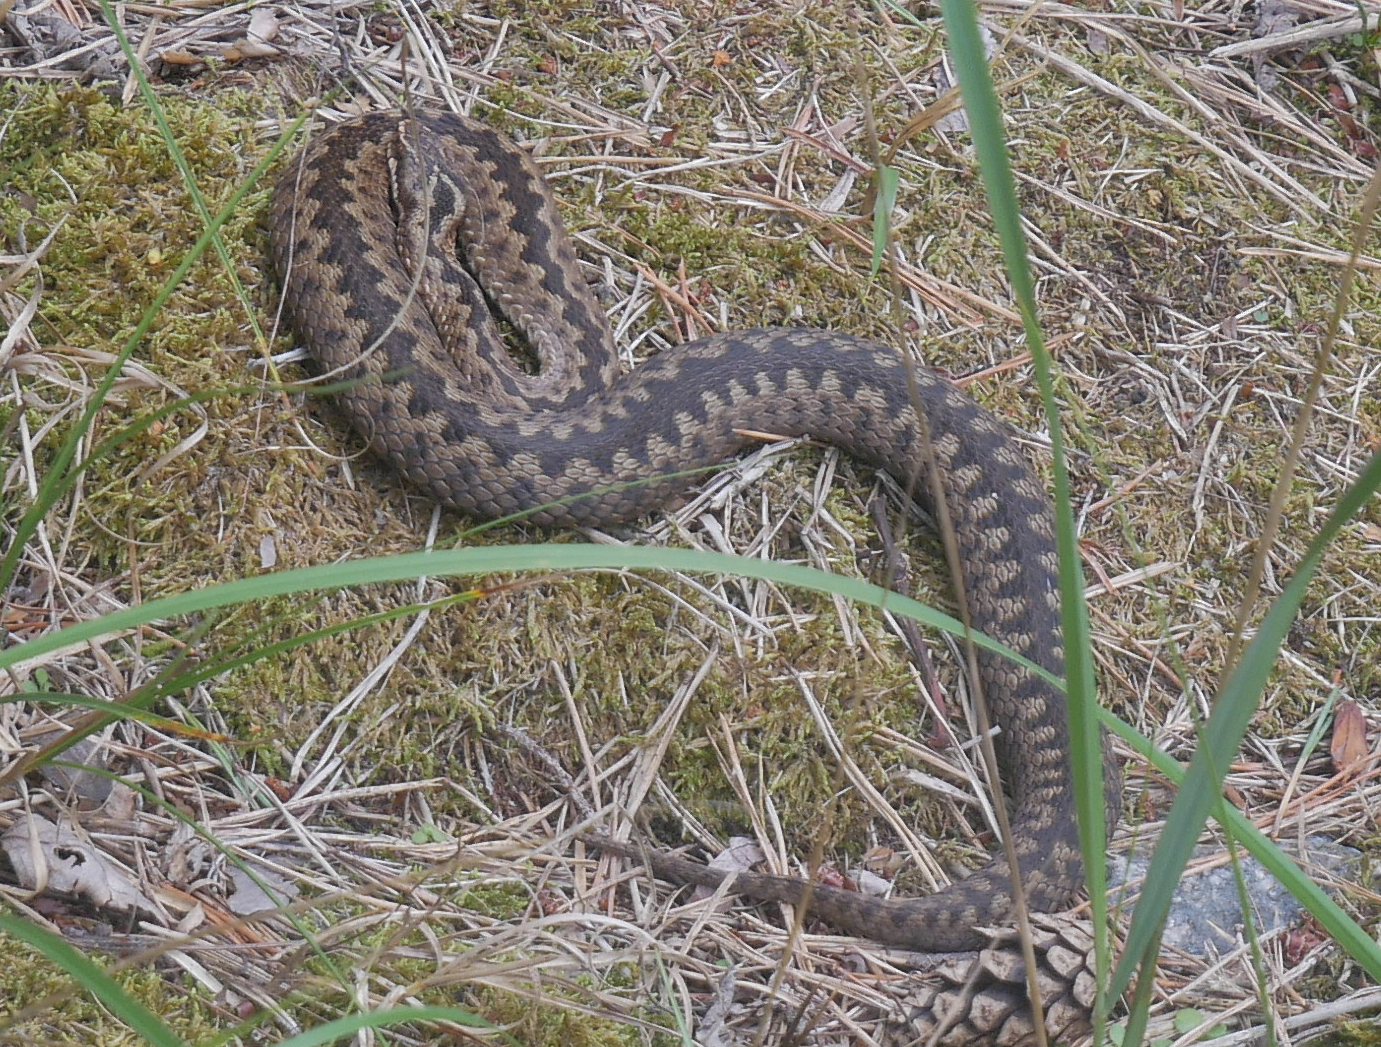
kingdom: Animalia
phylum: Chordata
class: Squamata
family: Viperidae
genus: Vipera
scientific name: Vipera berus
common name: Adder
